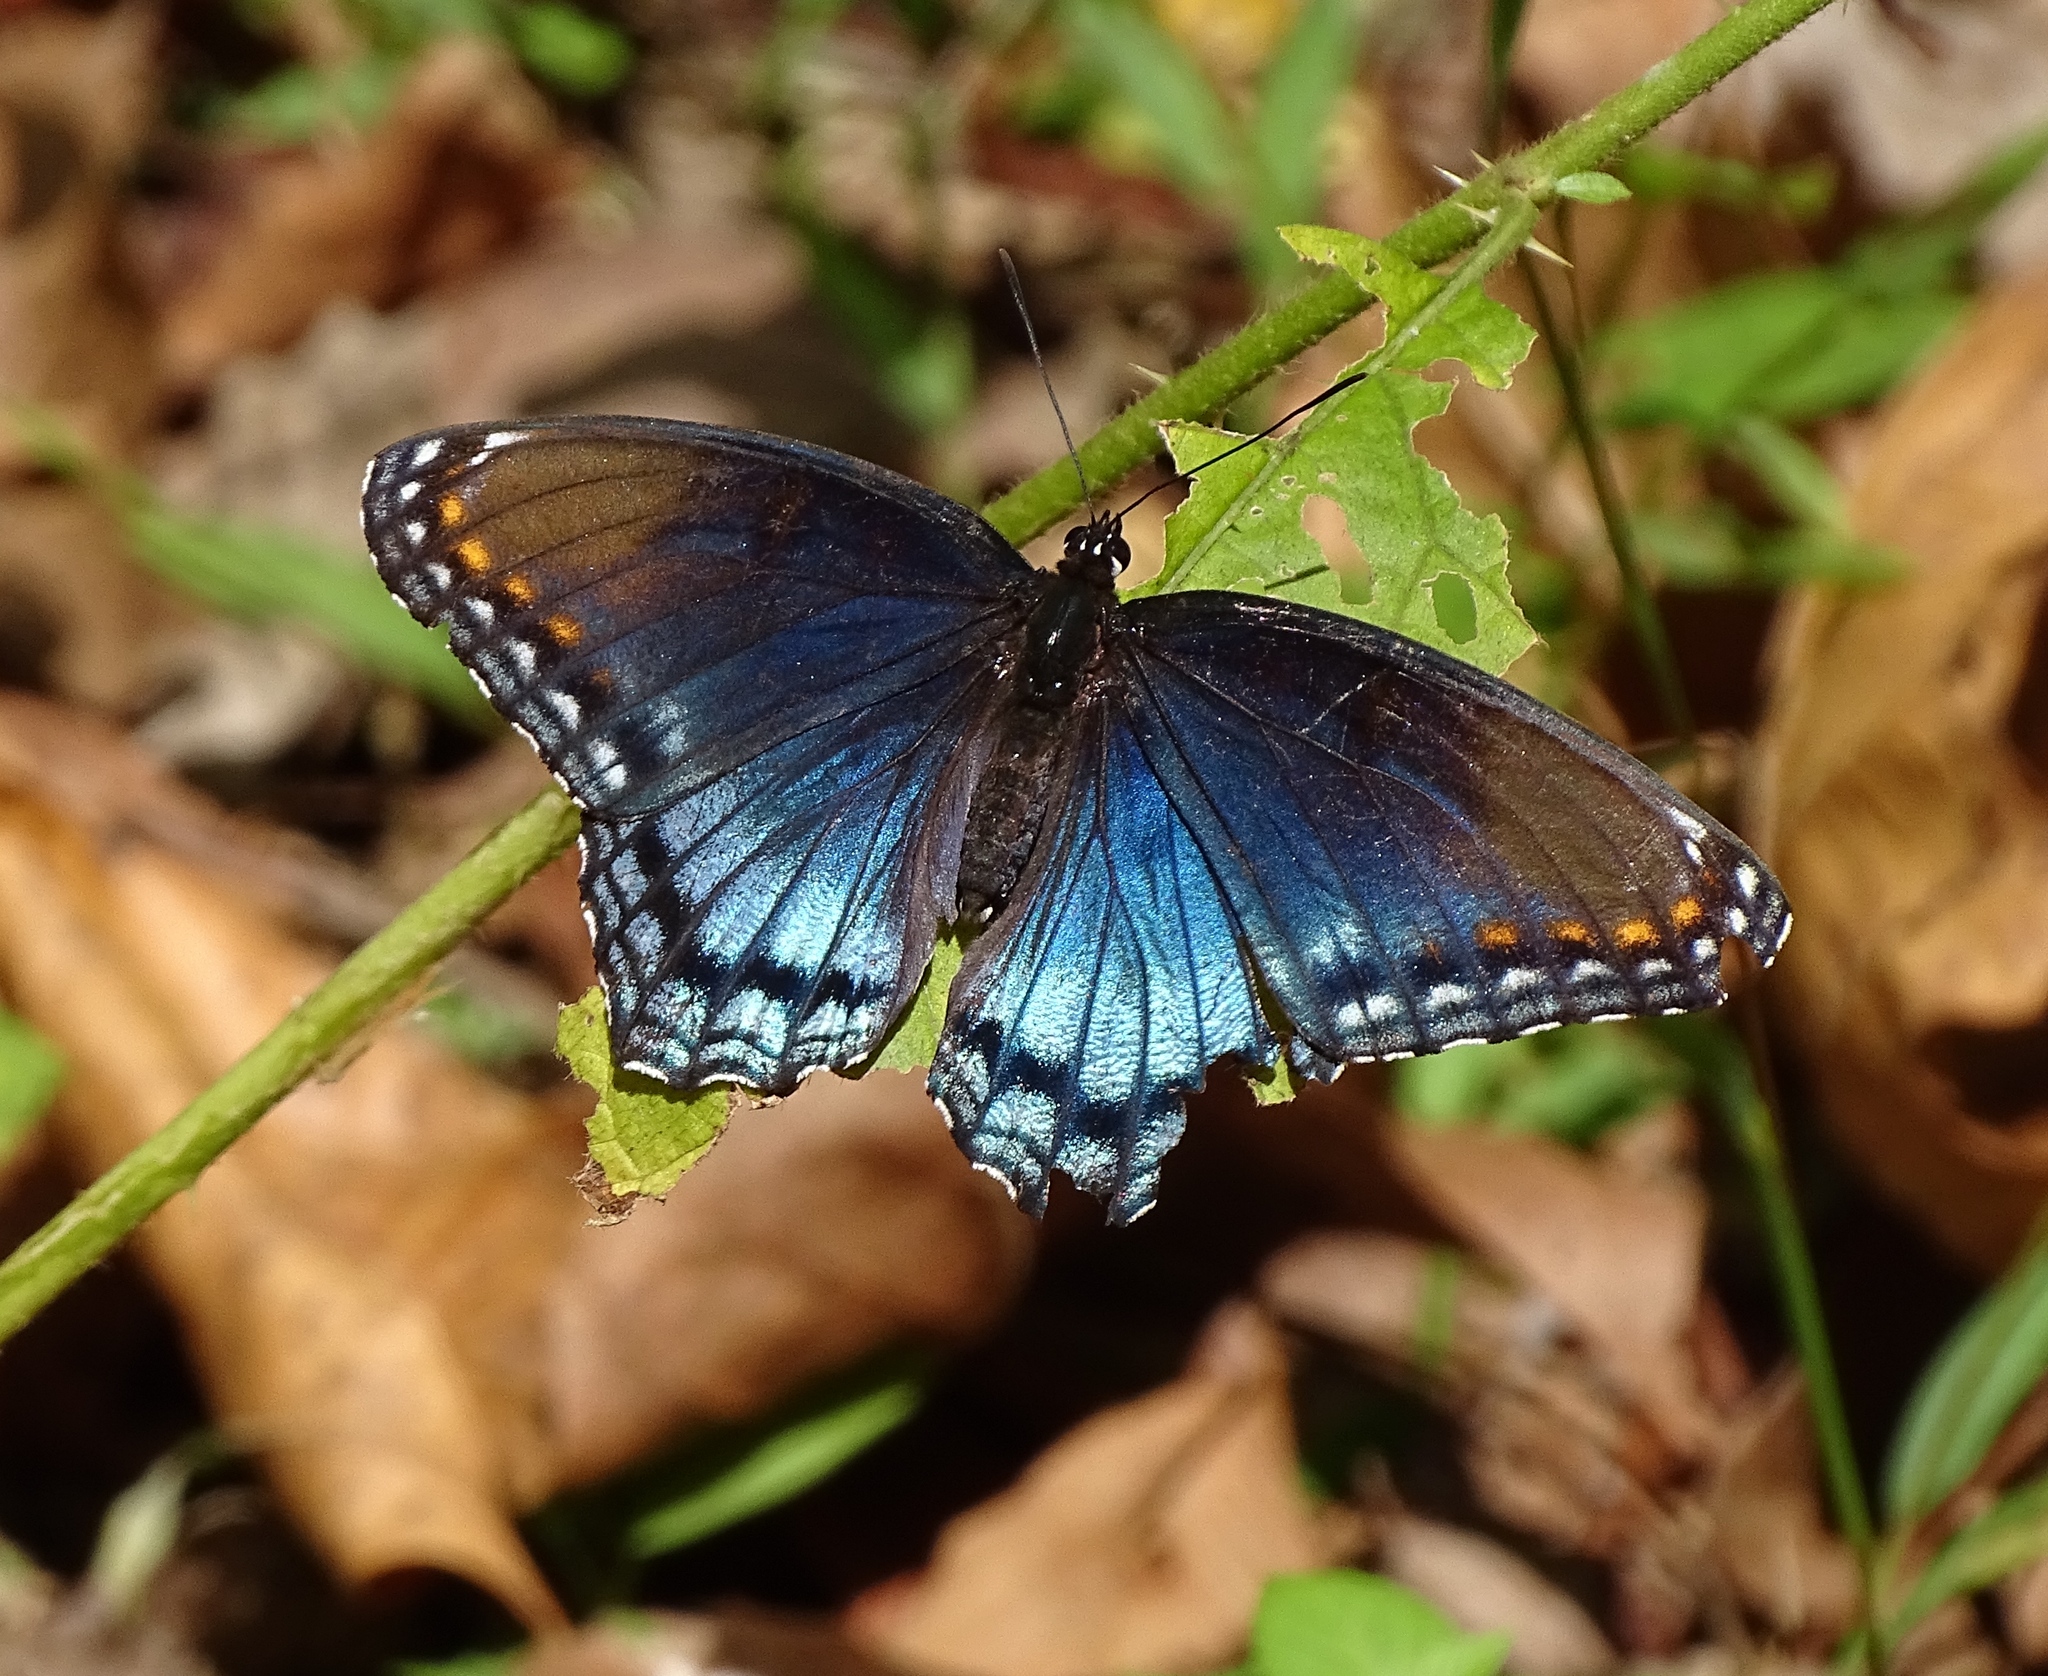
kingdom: Animalia
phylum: Arthropoda
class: Insecta
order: Lepidoptera
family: Nymphalidae
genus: Limenitis
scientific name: Limenitis astyanax
